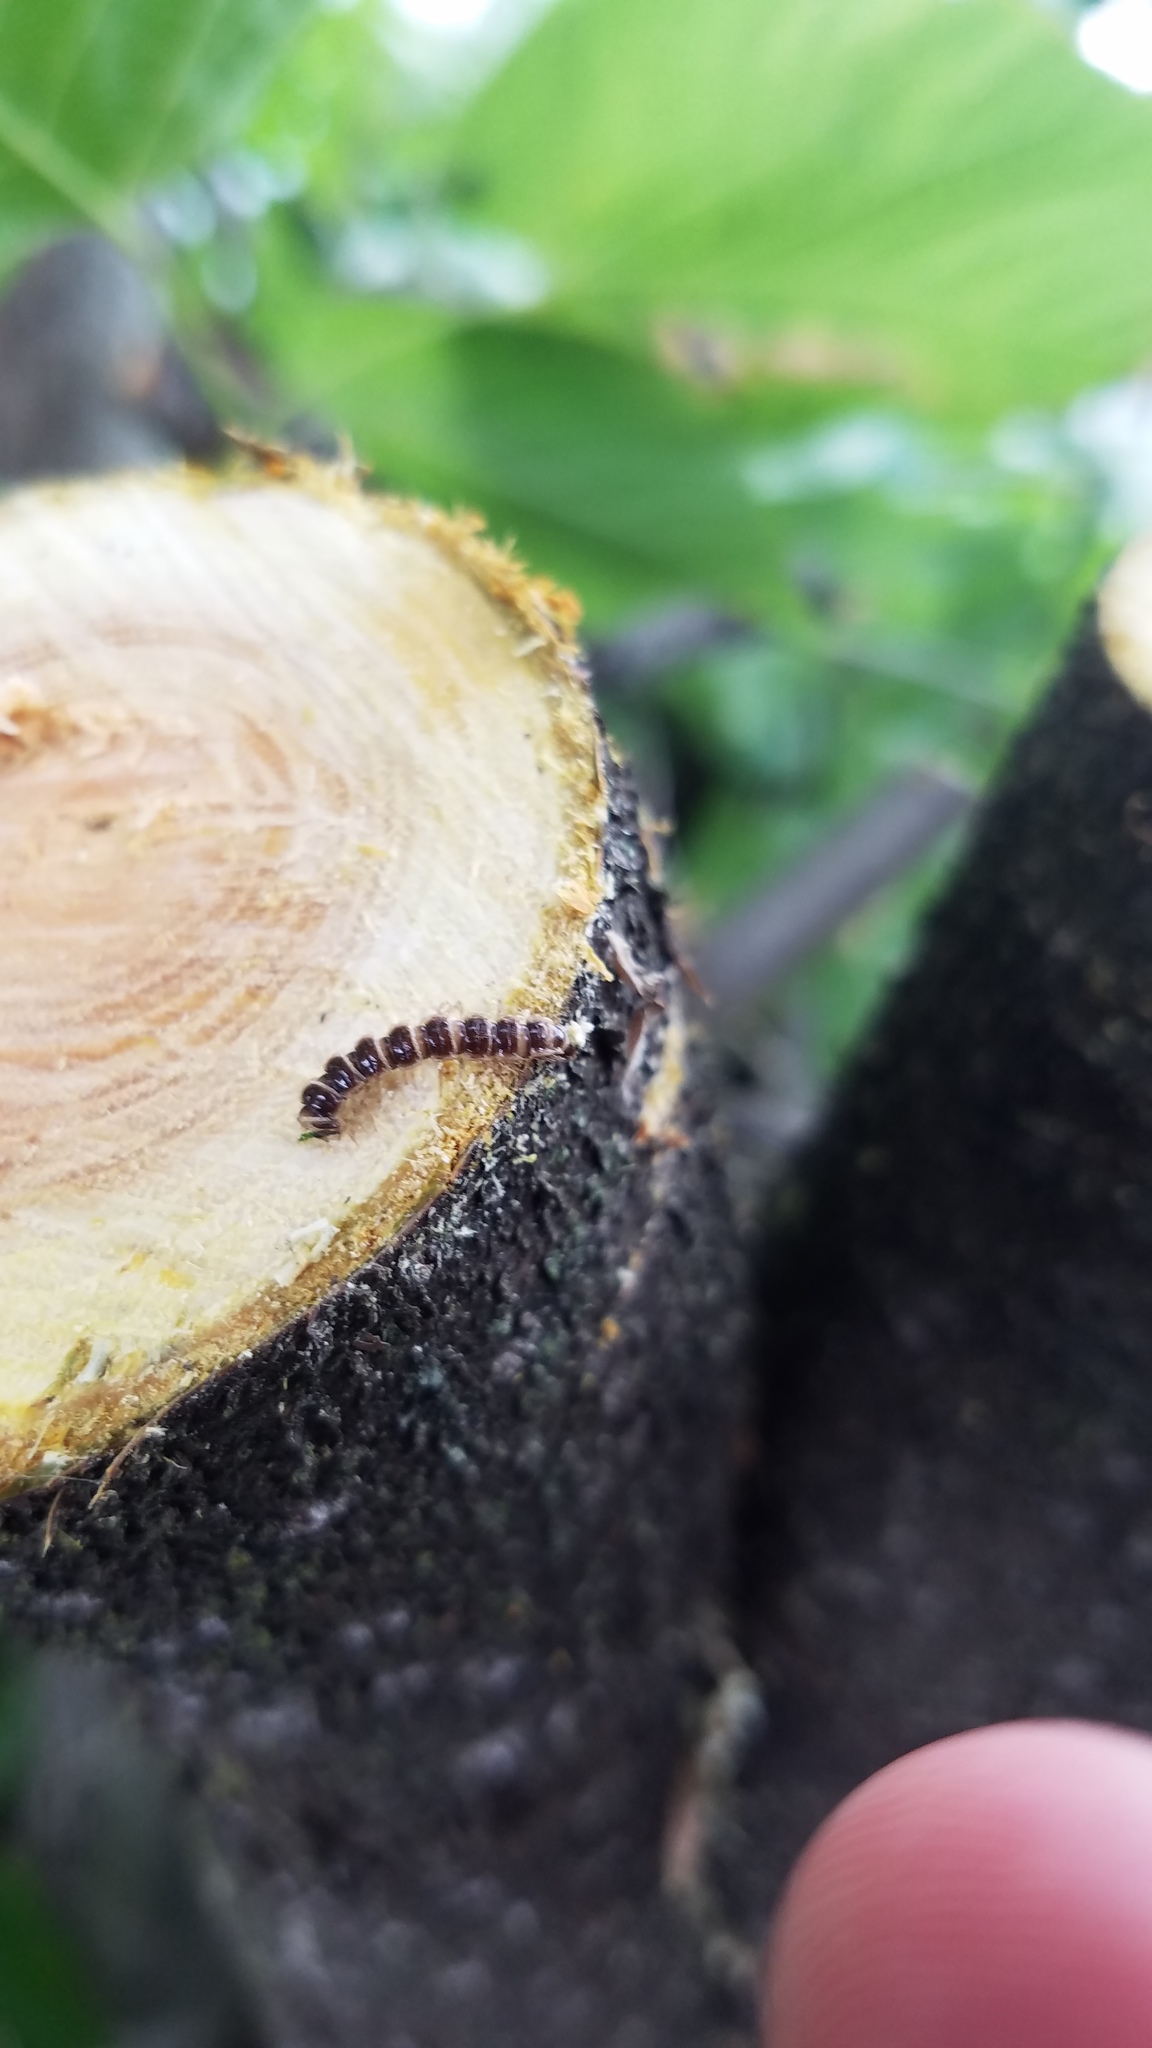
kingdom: Animalia
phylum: Arthropoda
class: Diplopoda
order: Polydesmida
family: Paradoxosomatidae
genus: Oxidus
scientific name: Oxidus gracilis
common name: Greenhouse millipede
